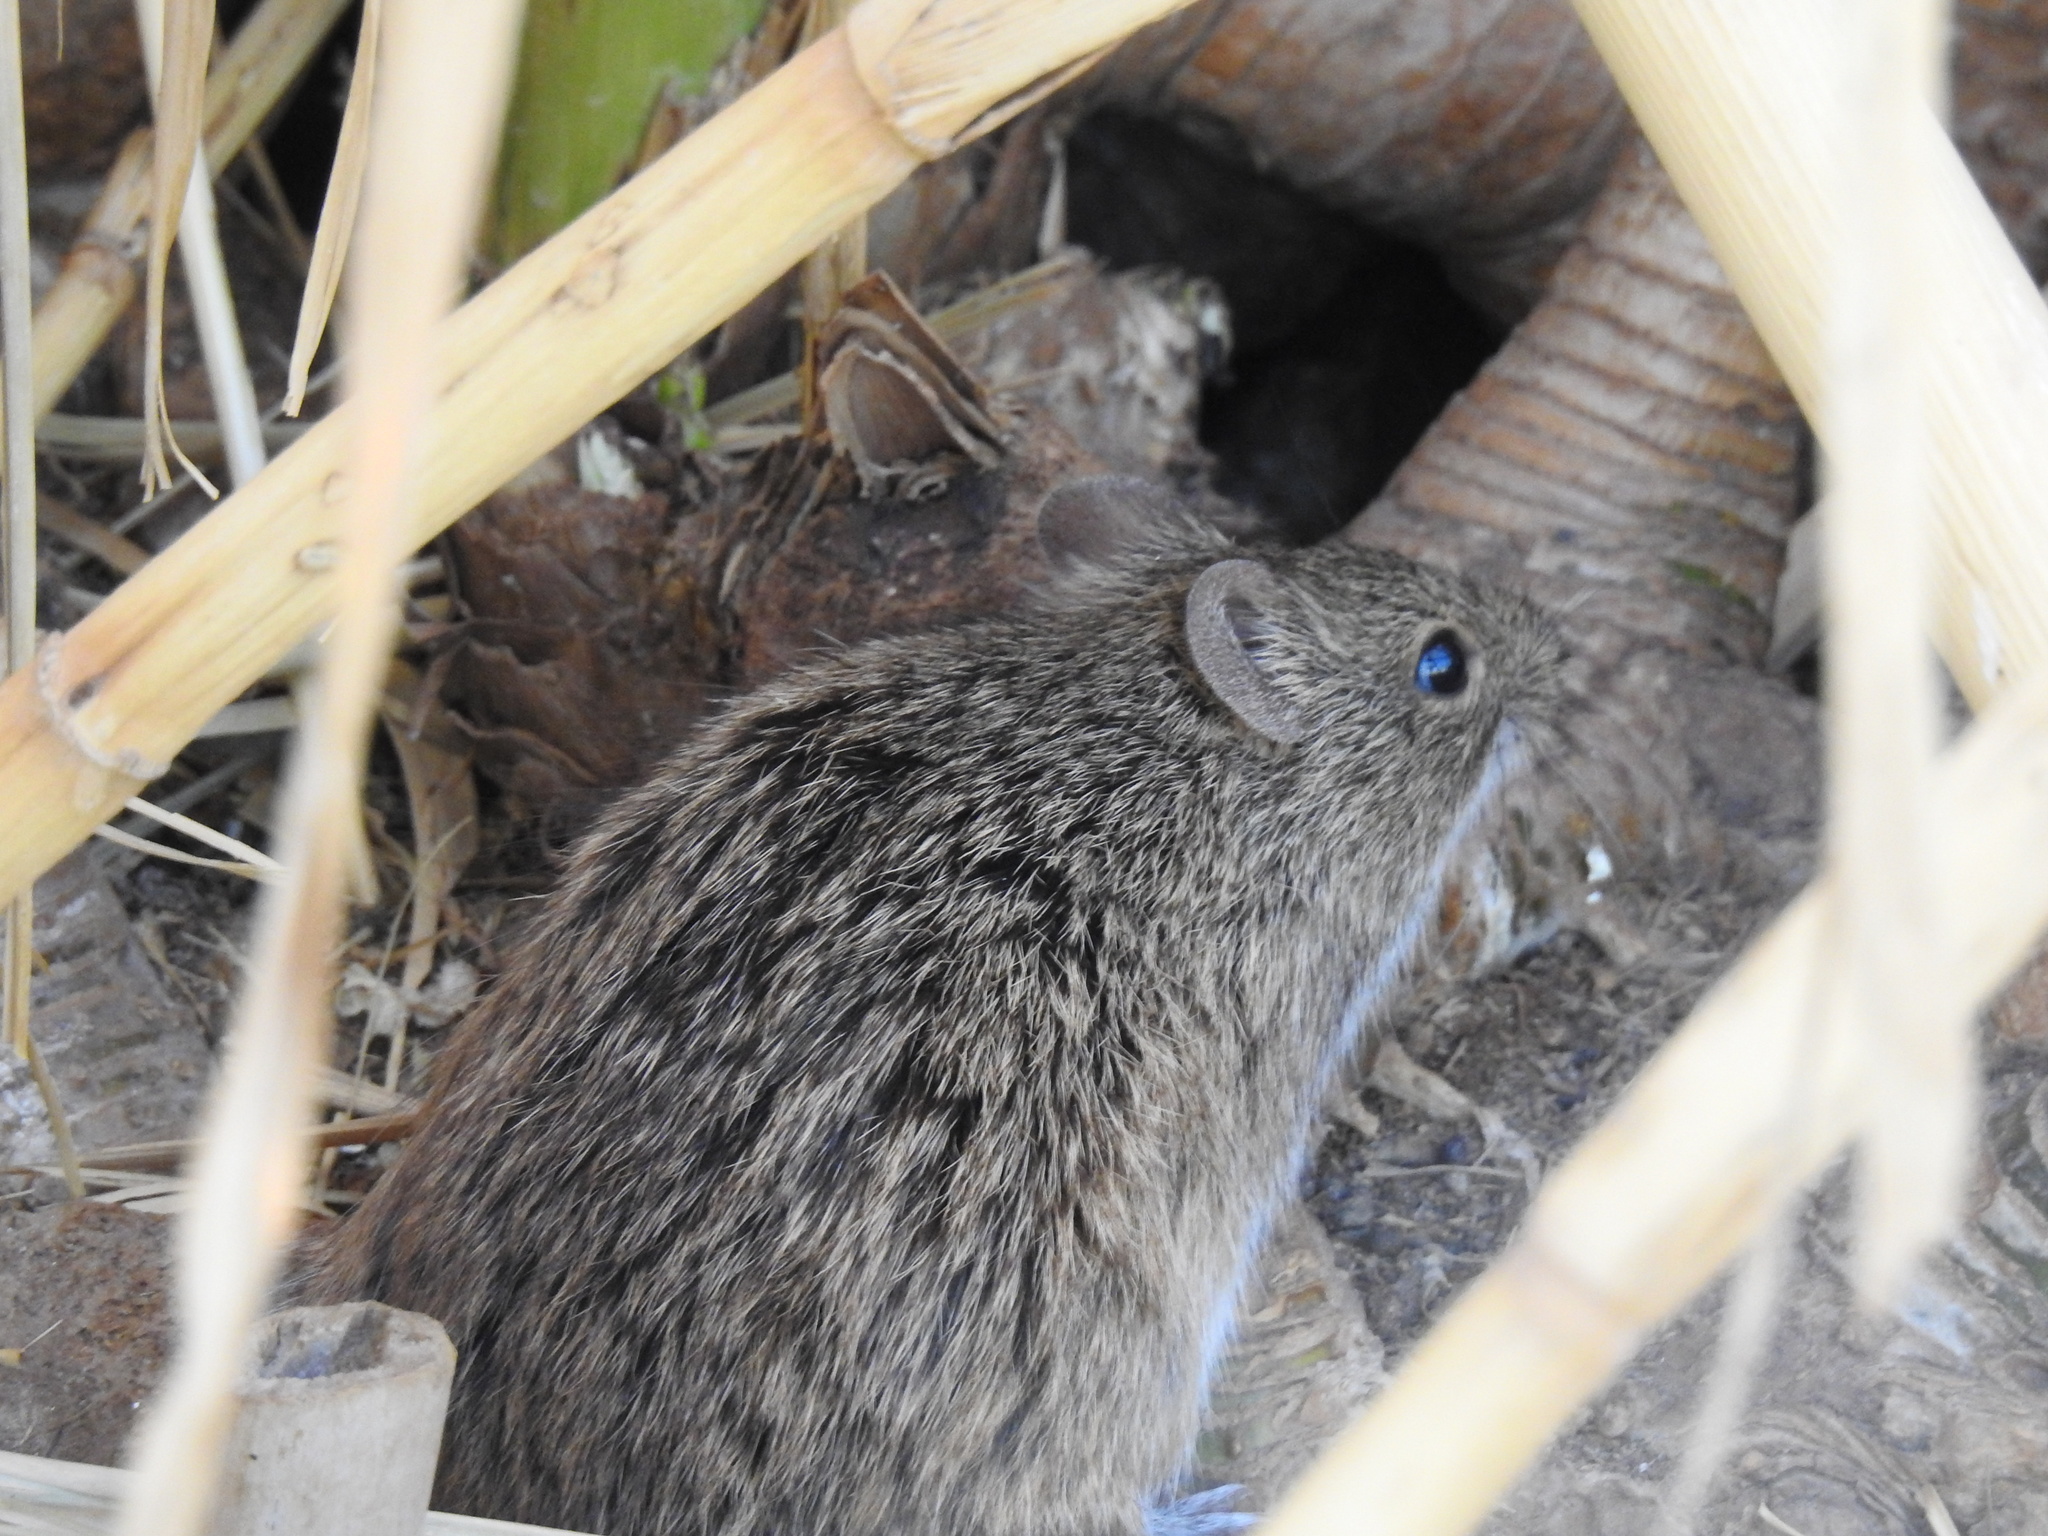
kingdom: Animalia
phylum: Chordata
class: Mammalia
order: Rodentia
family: Cricetidae
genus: Sigmodon
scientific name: Sigmodon hispidus
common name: Hispid cotton rat
